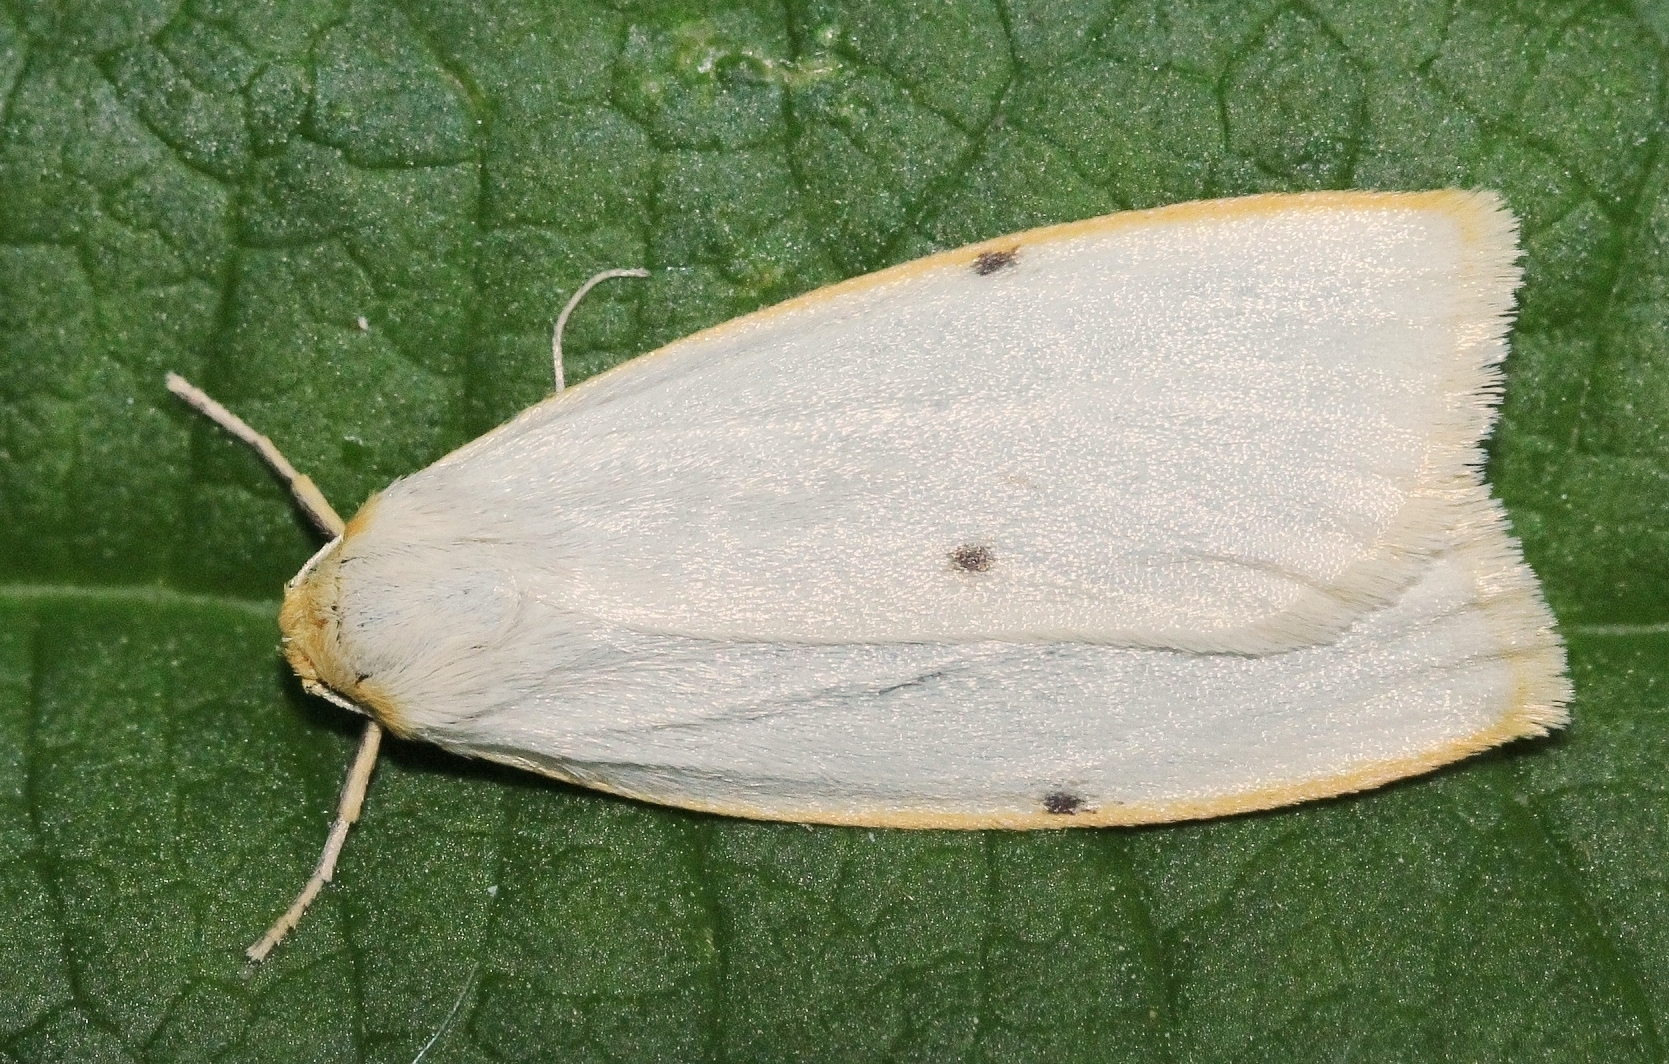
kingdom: Animalia
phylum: Arthropoda
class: Insecta
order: Lepidoptera
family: Erebidae
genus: Cybosia
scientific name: Cybosia mesomella
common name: Four-dotted footman
